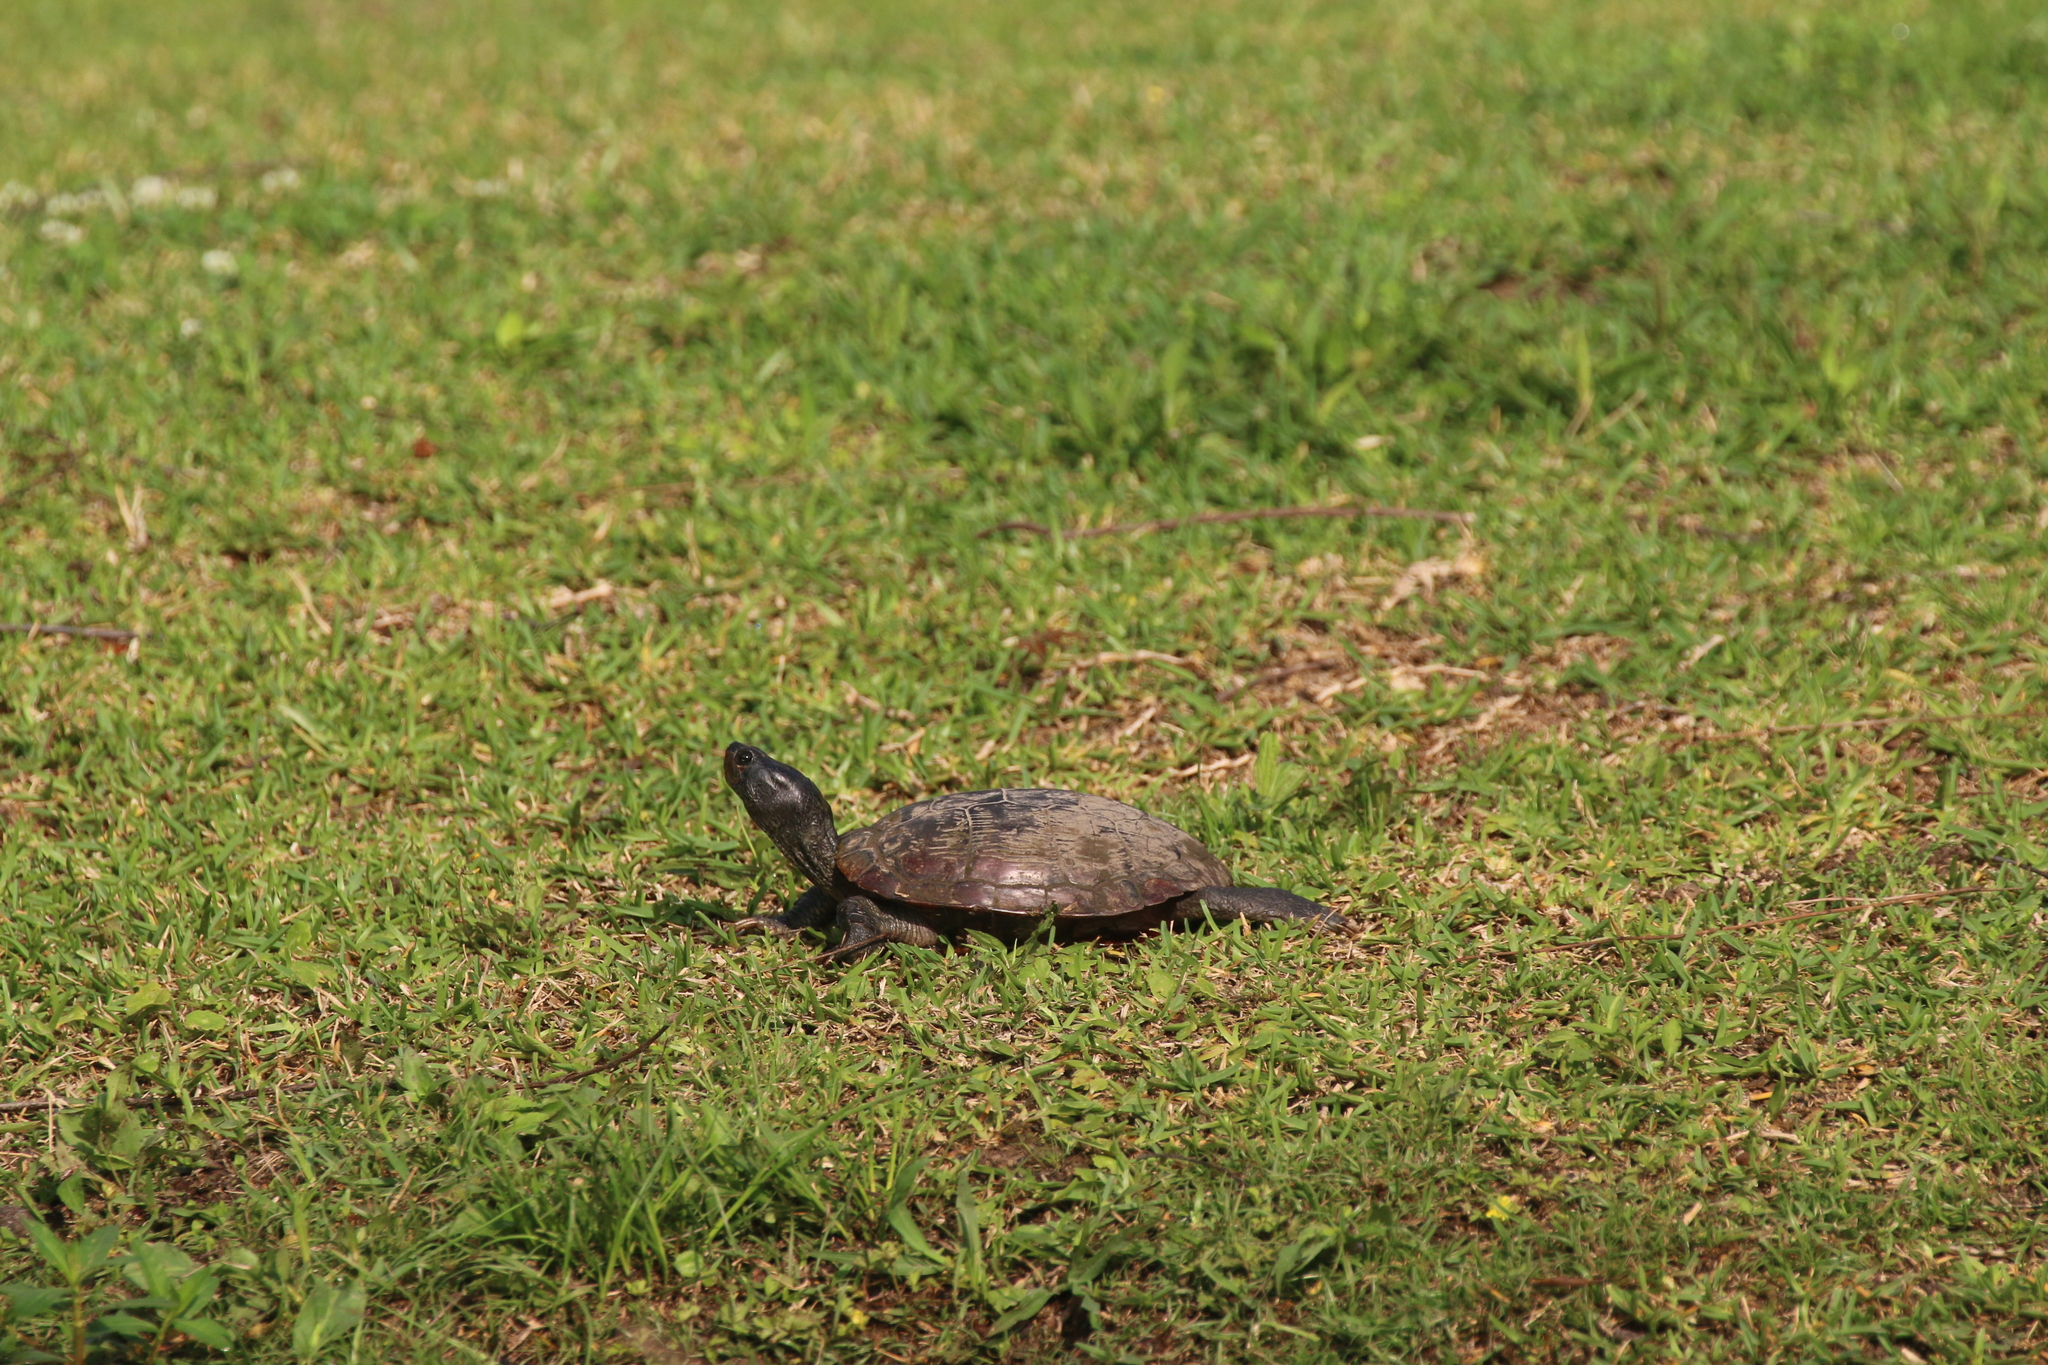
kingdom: Animalia
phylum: Chordata
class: Testudines
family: Emydidae
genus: Trachemys
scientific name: Trachemys scripta
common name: Slider
